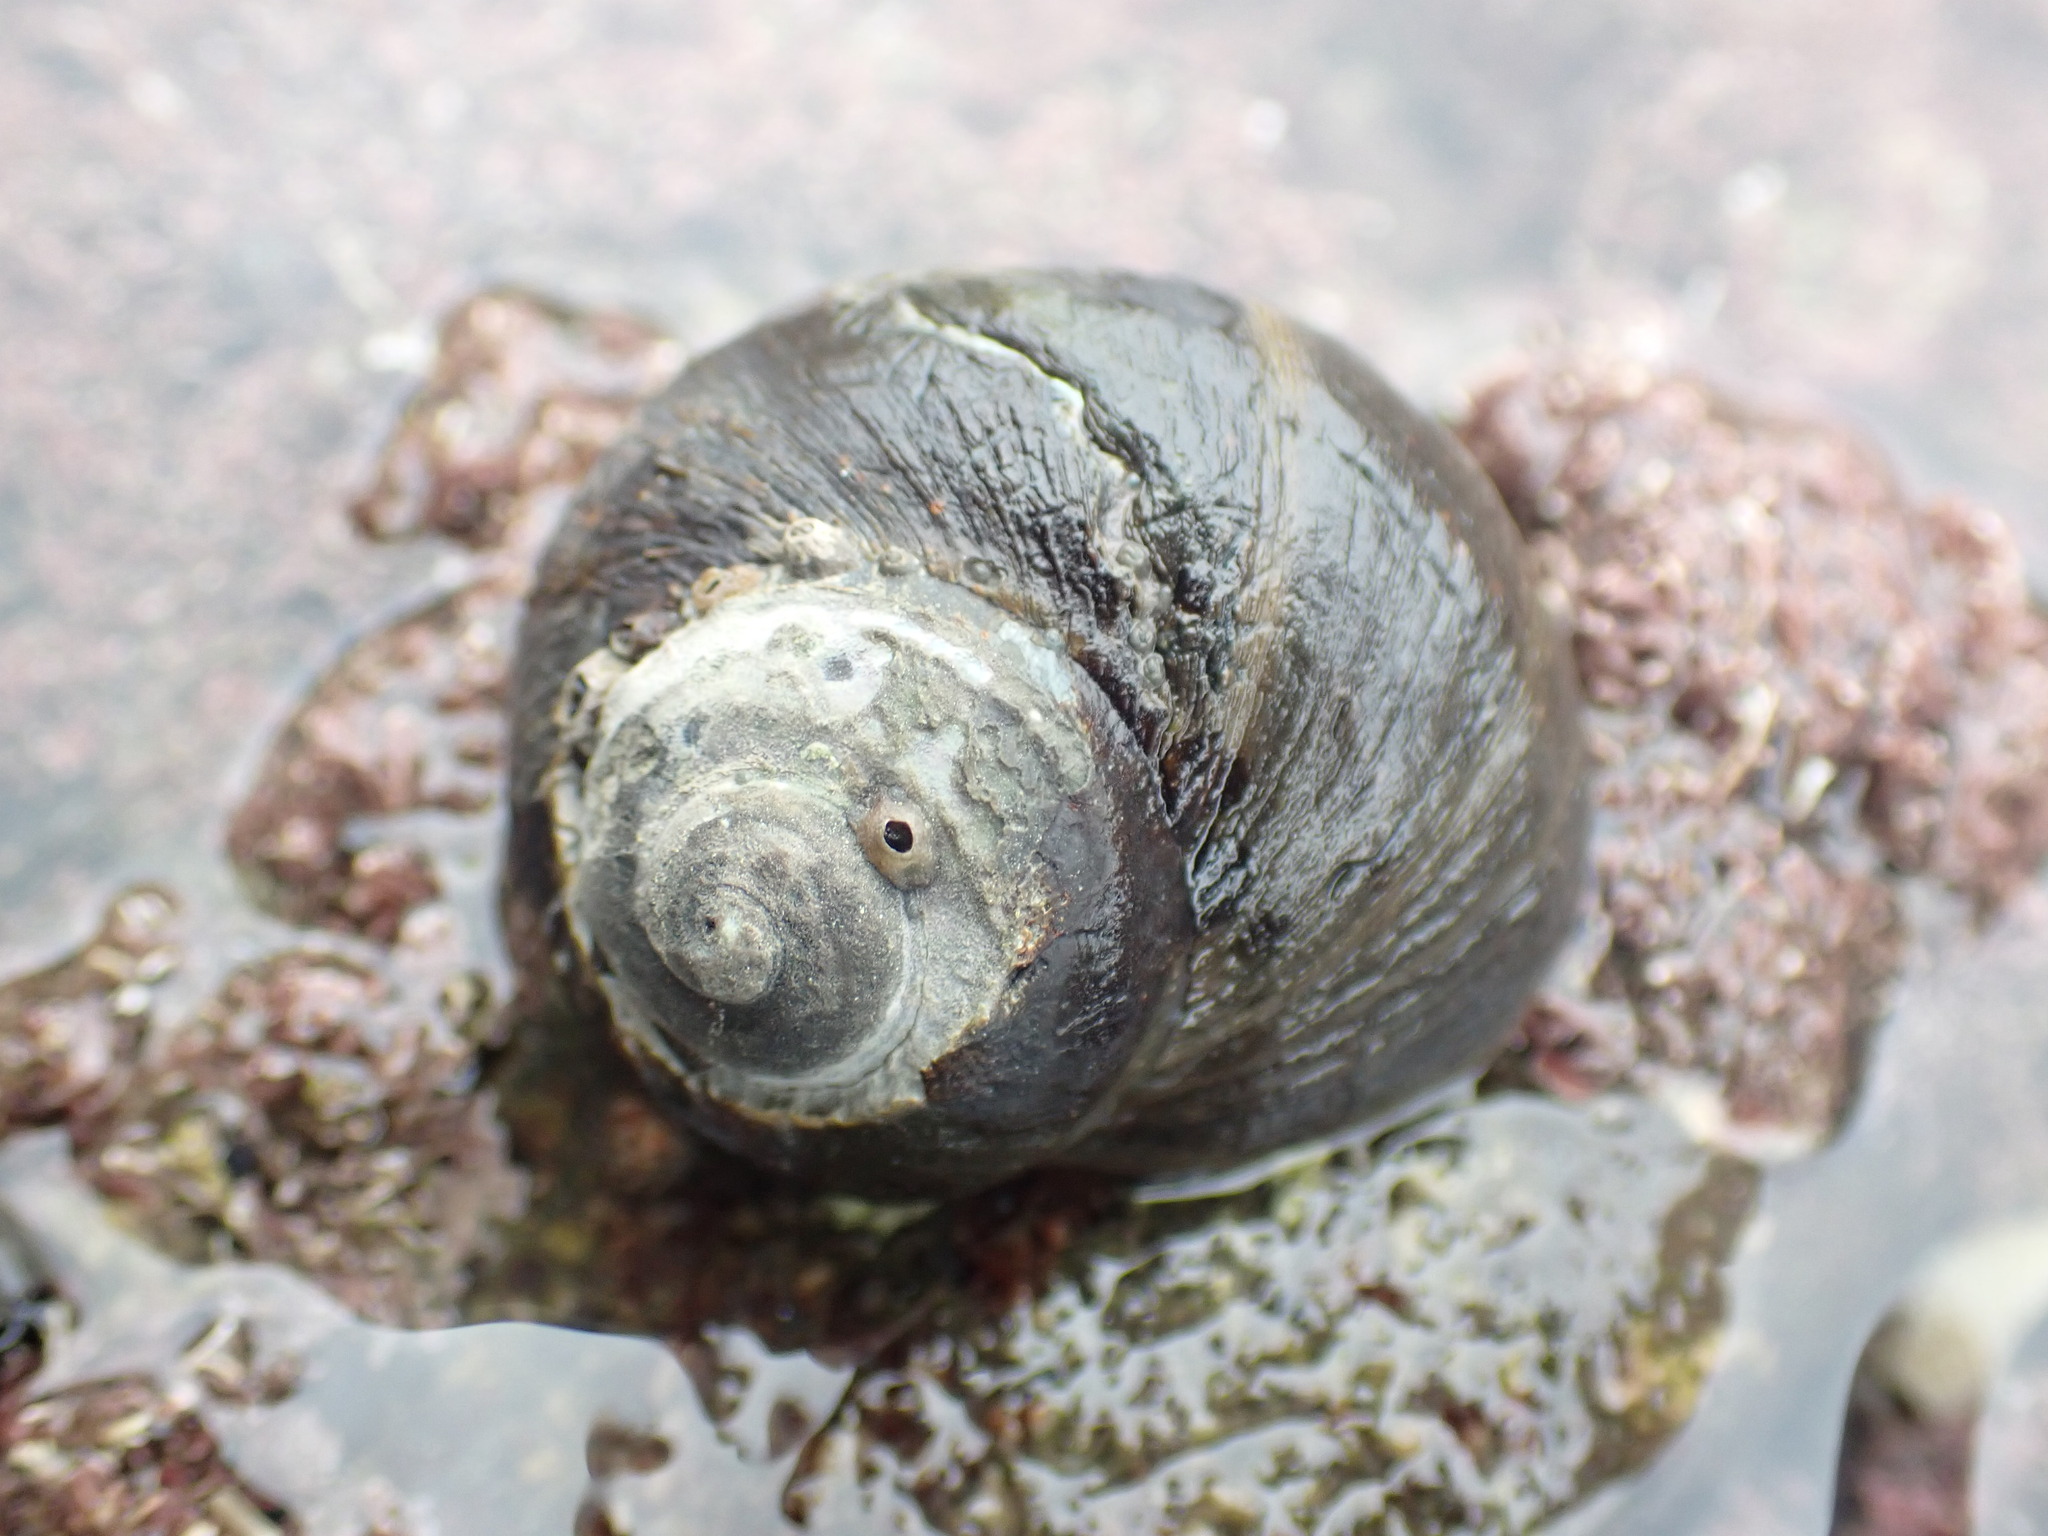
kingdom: Animalia
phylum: Mollusca
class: Gastropoda
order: Trochida
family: Turbinidae
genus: Lunella
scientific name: Lunella smaragda
